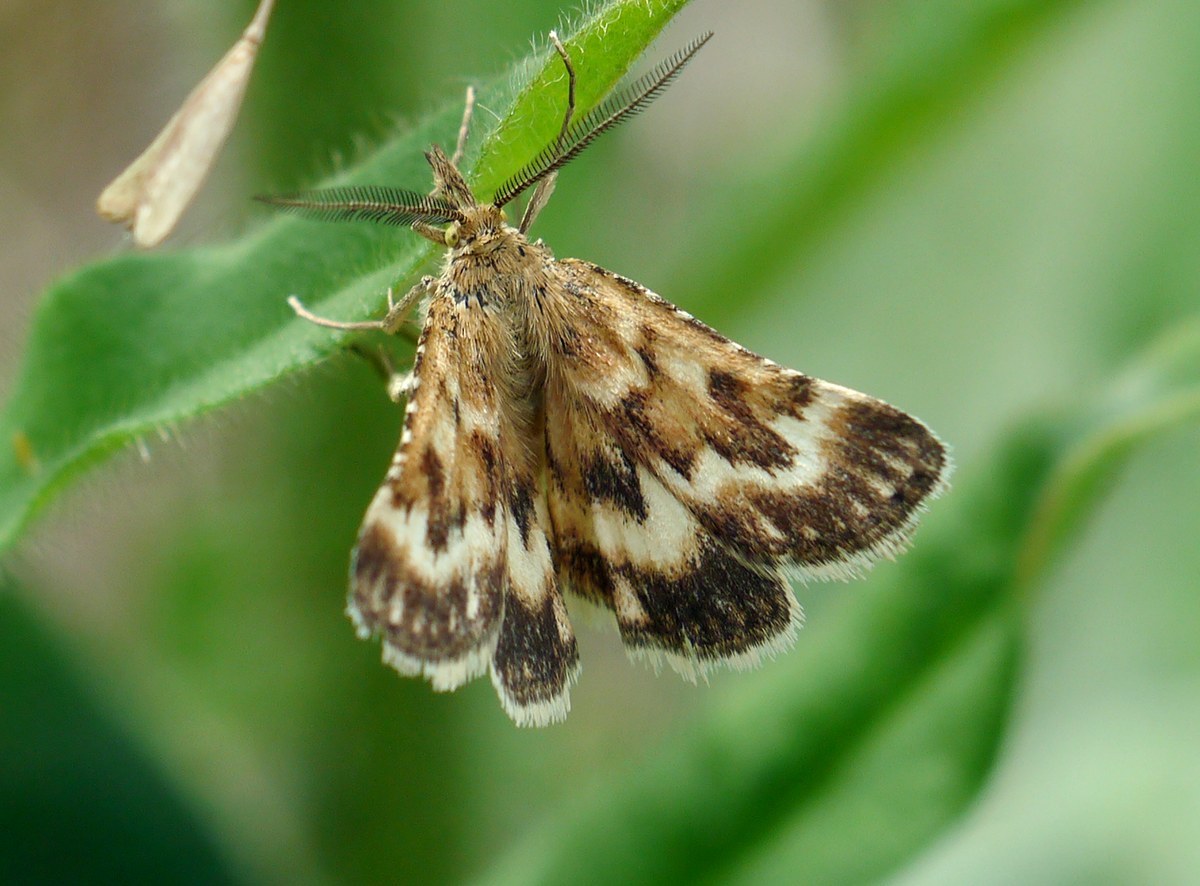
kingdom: Animalia
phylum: Arthropoda
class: Insecta
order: Lepidoptera
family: Pyralidae
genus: Synaphe
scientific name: Synaphe moldavica
